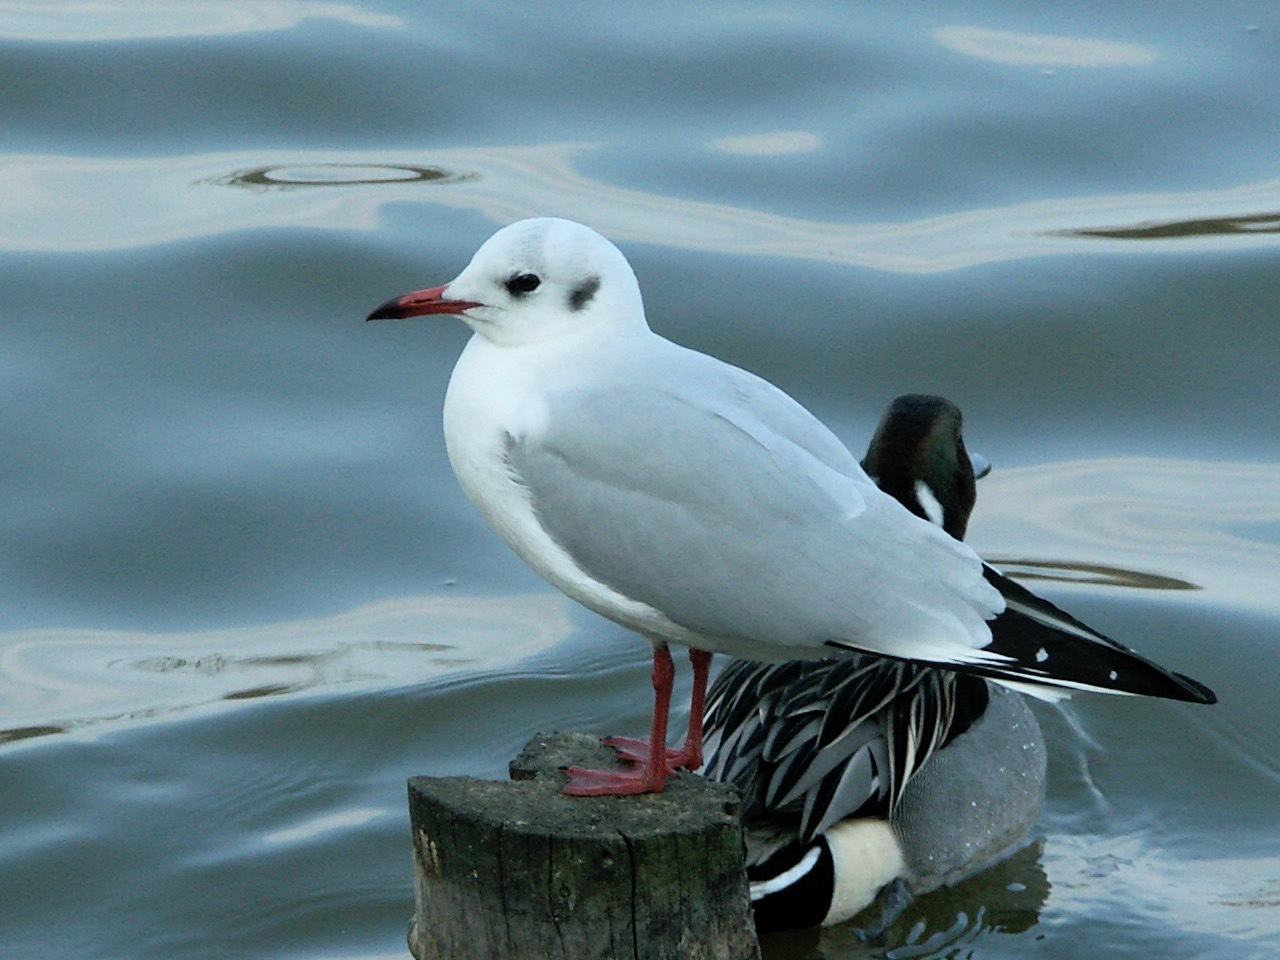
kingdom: Animalia
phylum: Chordata
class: Aves
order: Charadriiformes
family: Laridae
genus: Chroicocephalus
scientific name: Chroicocephalus ridibundus
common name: Black-headed gull
